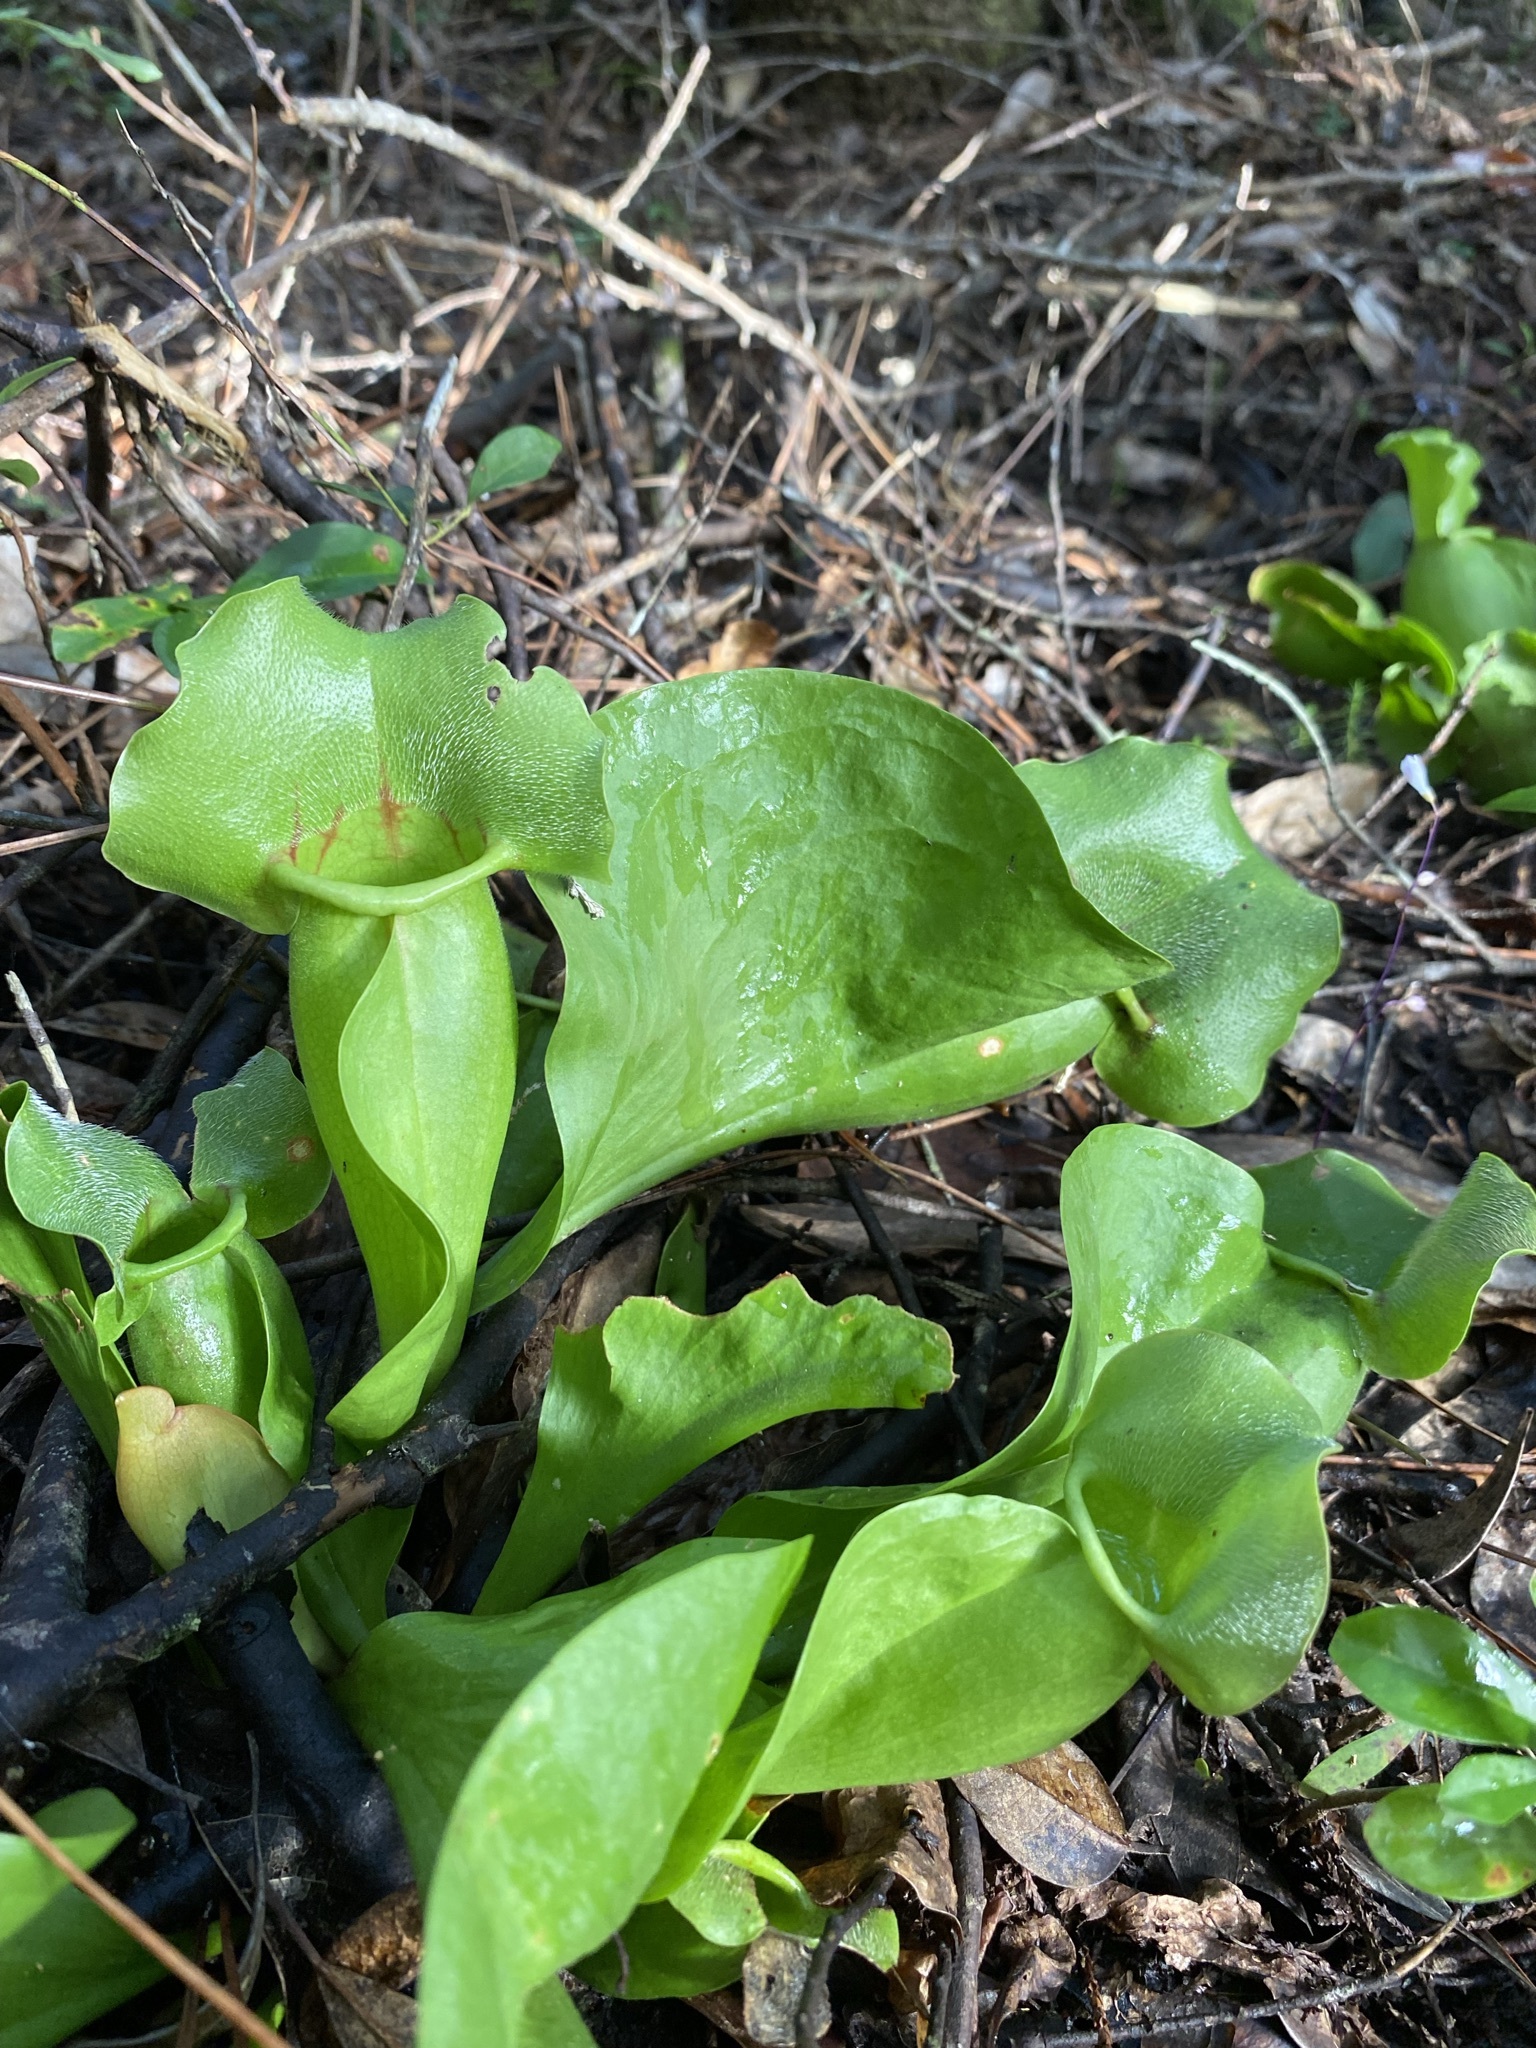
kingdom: Plantae
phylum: Tracheophyta
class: Magnoliopsida
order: Ericales
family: Sarraceniaceae
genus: Sarracenia
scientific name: Sarracenia rosea
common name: Pink pitcherplant
